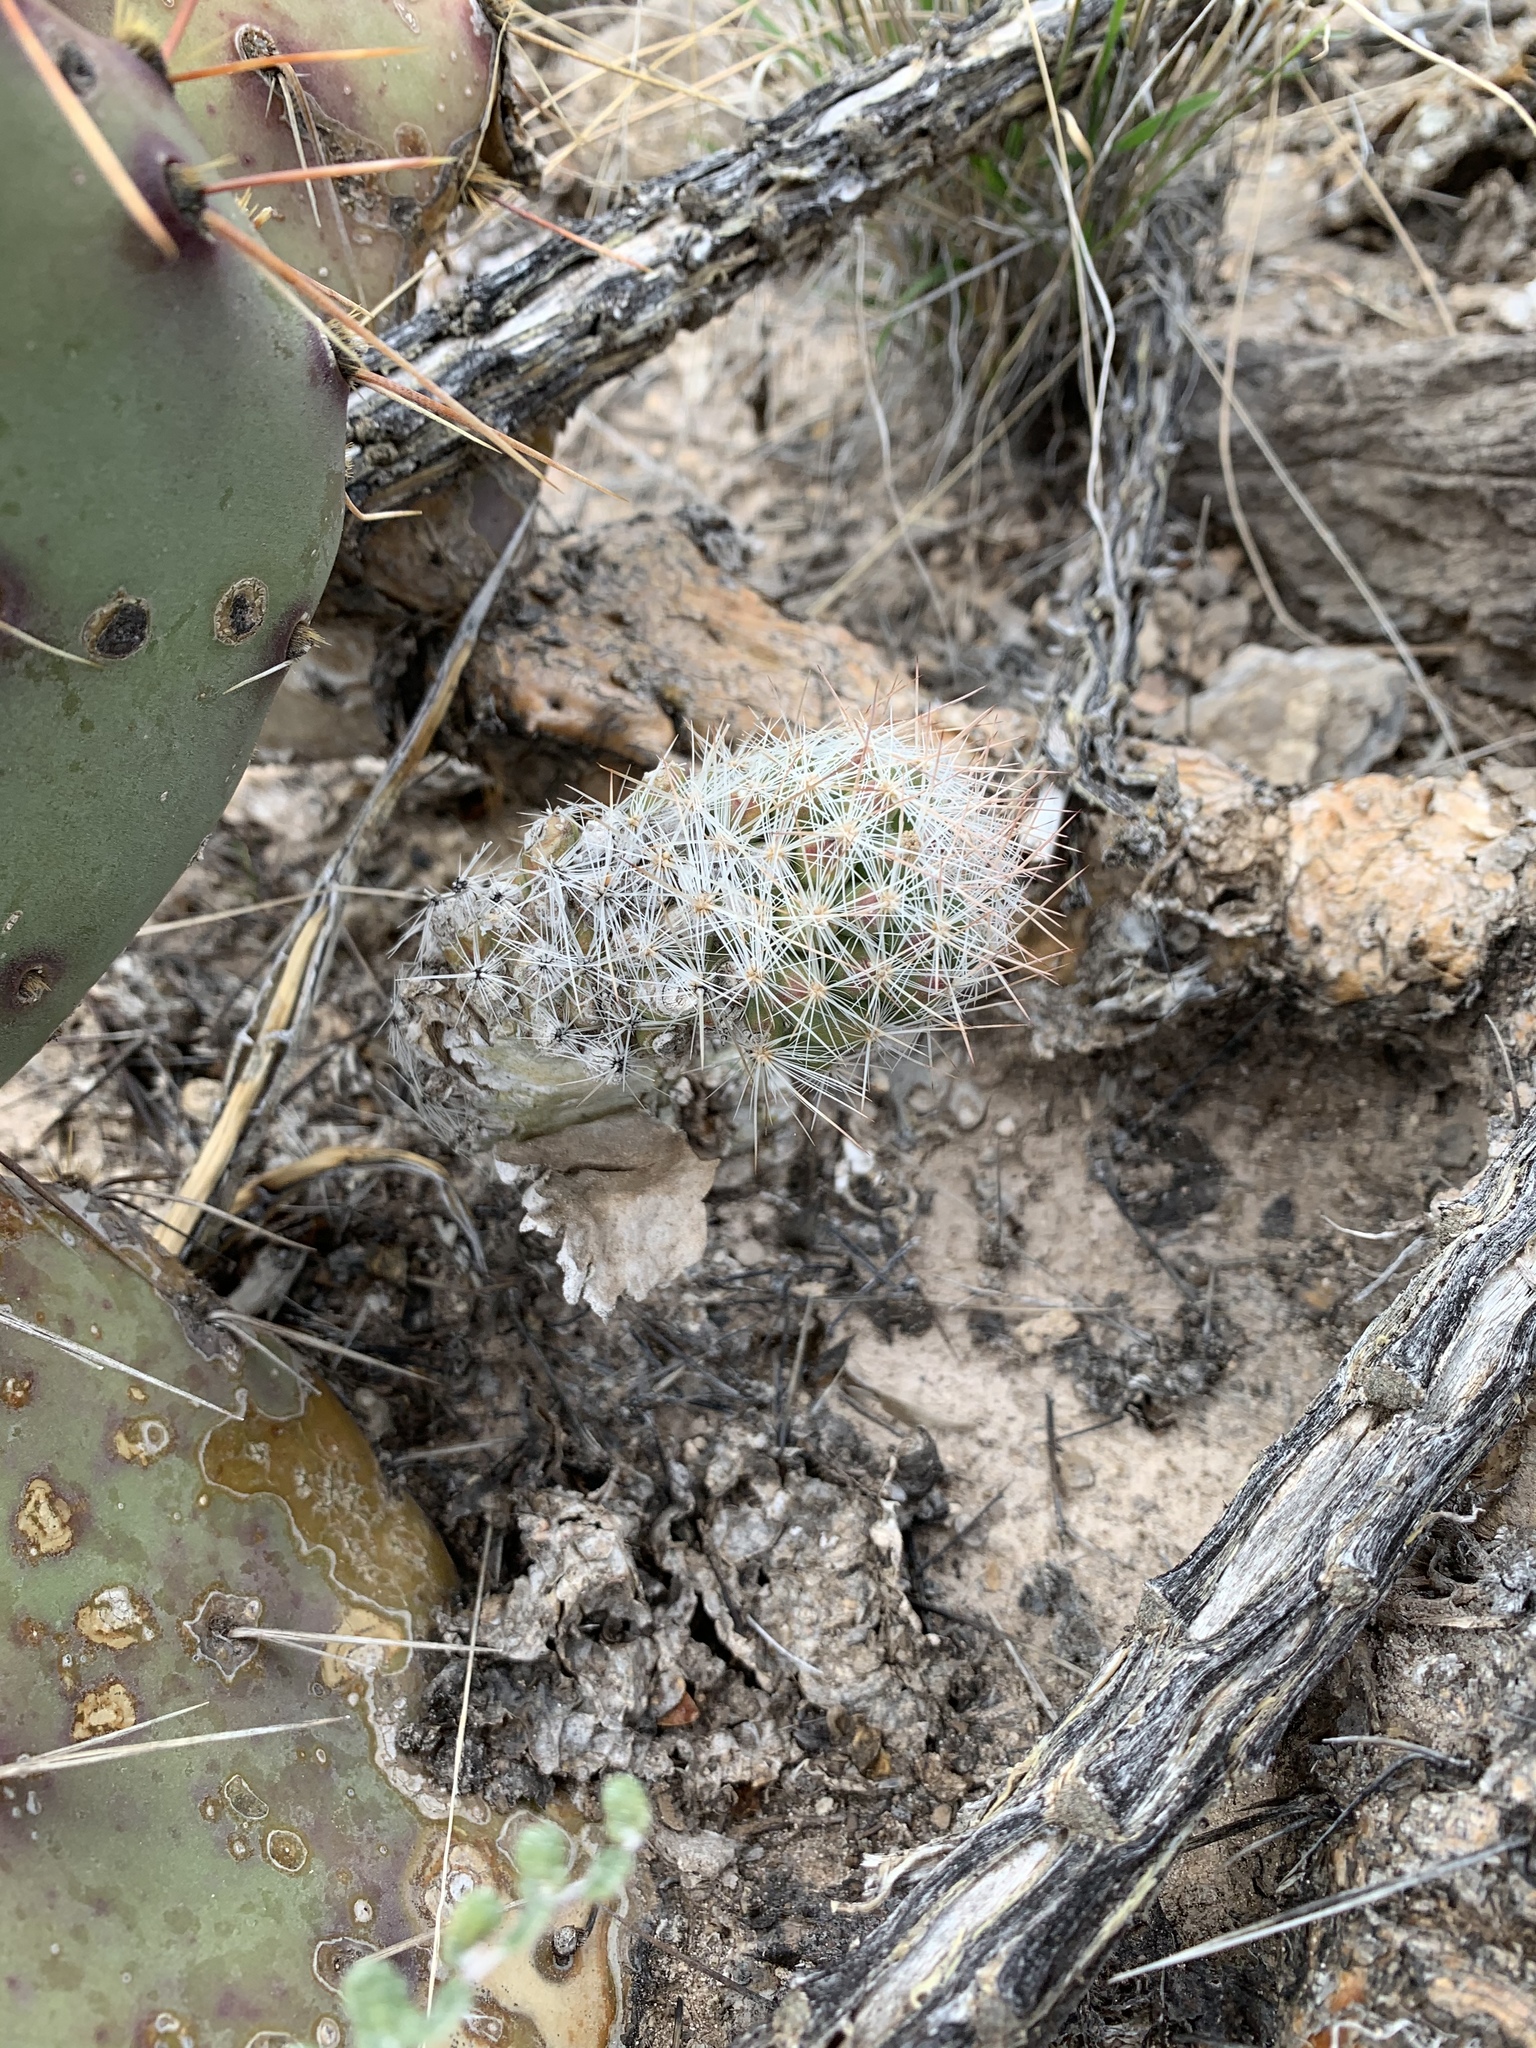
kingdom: Plantae
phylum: Tracheophyta
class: Magnoliopsida
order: Caryophyllales
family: Cactaceae
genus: Pelecyphora
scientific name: Pelecyphora tuberculosa
